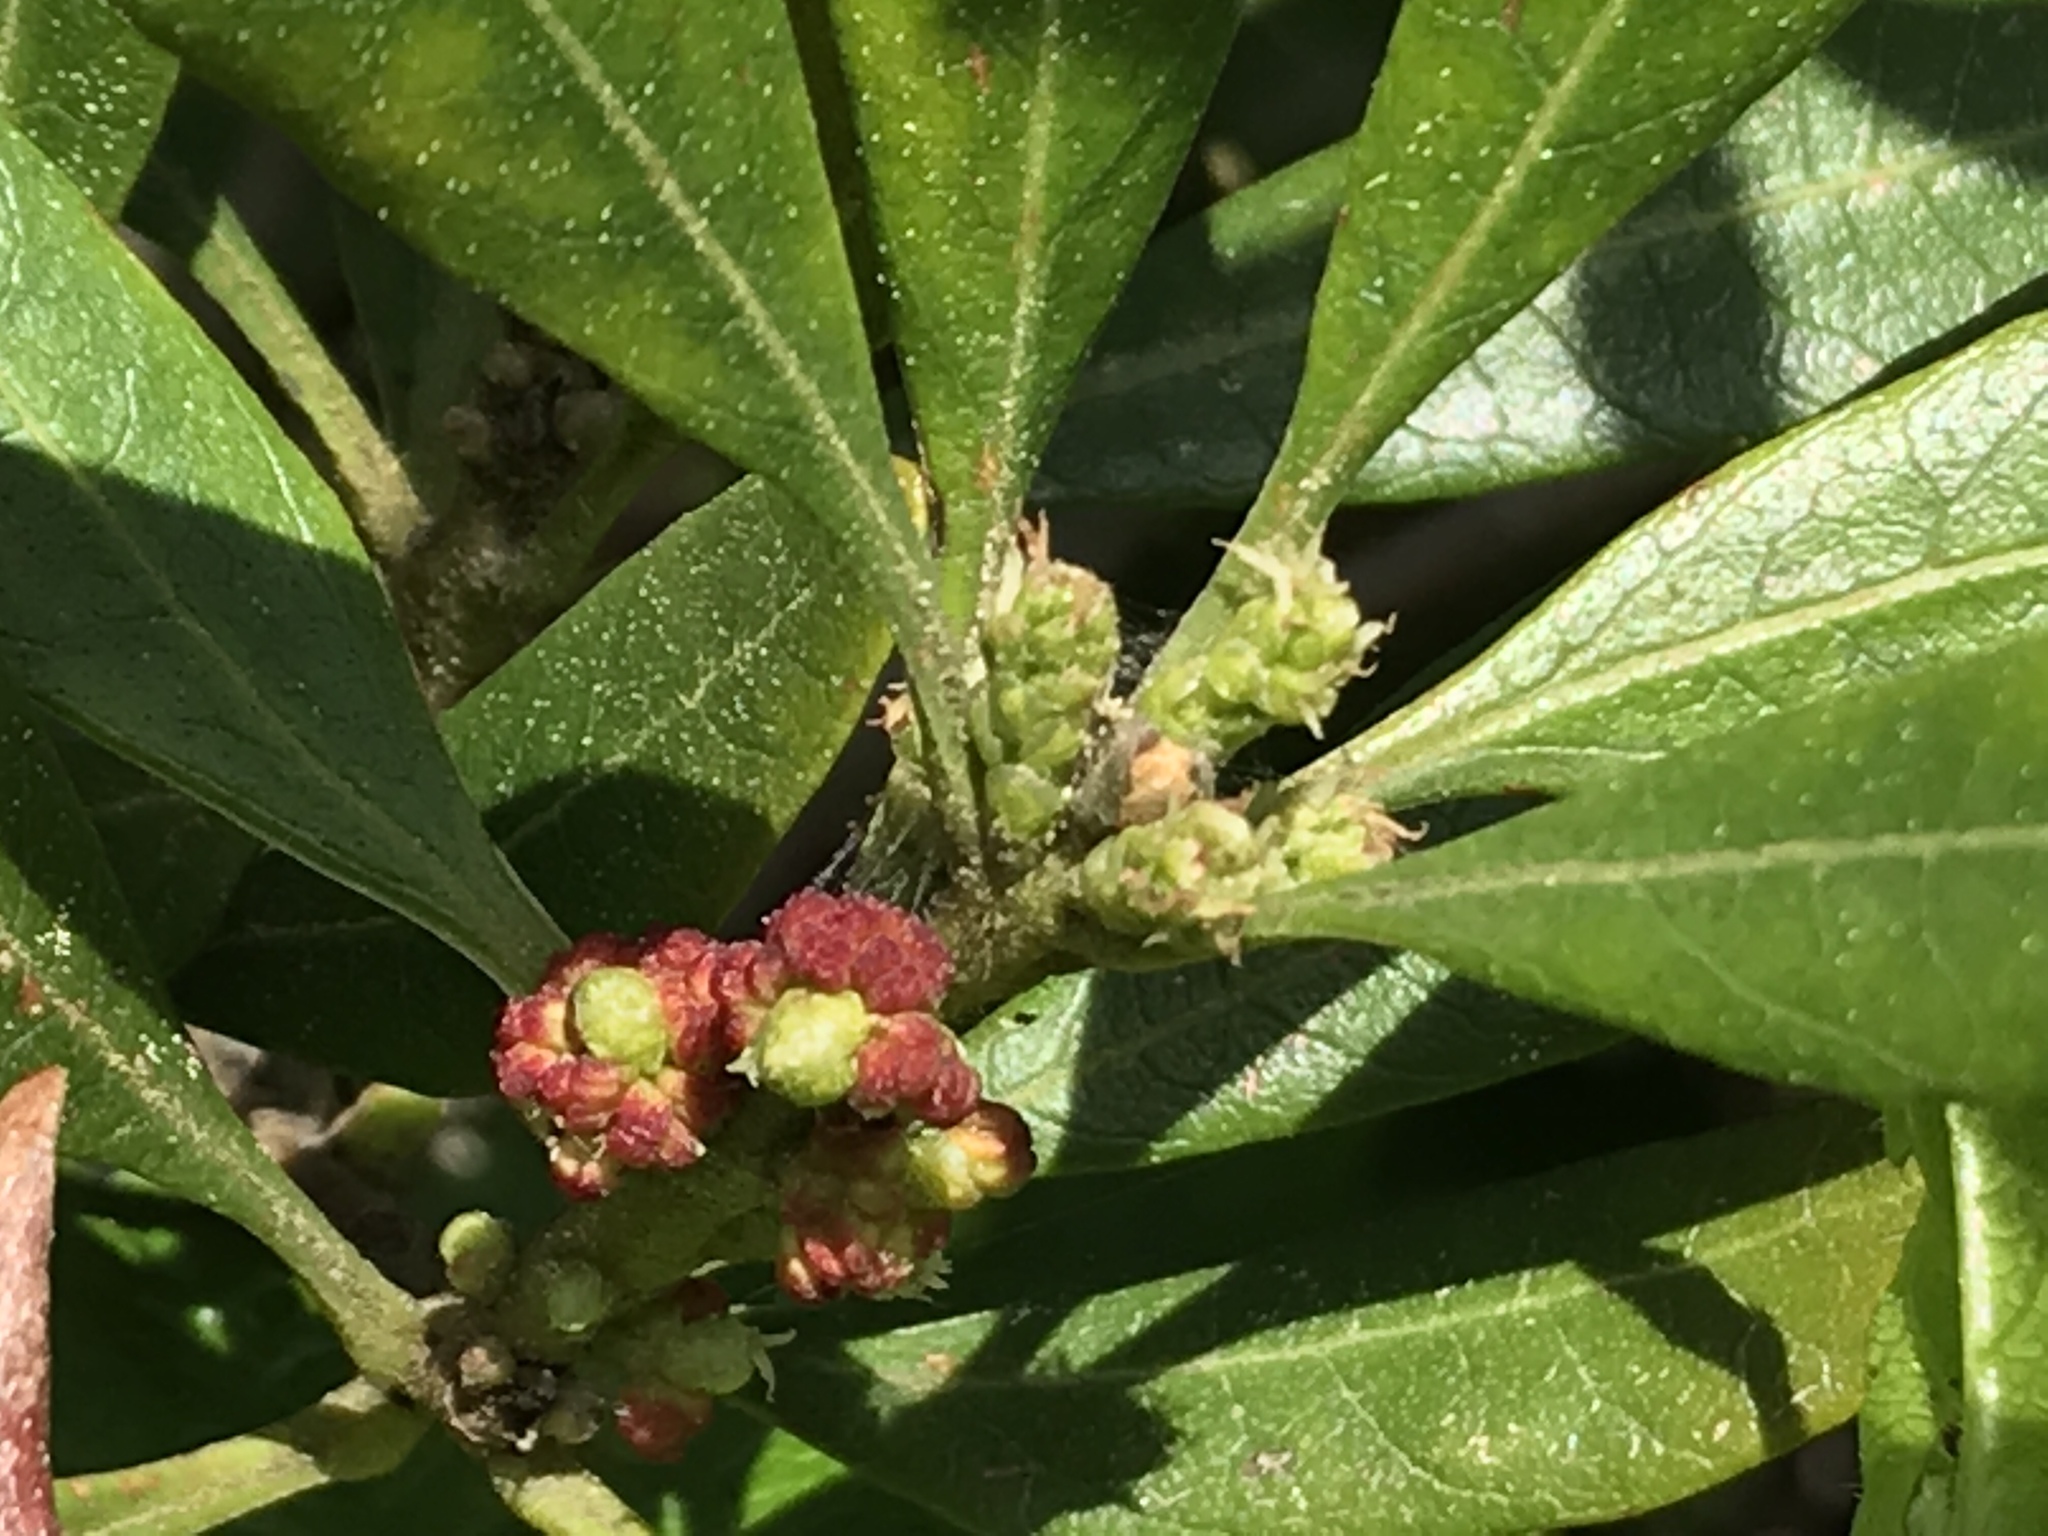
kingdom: Plantae
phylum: Tracheophyta
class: Magnoliopsida
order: Fagales
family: Myricaceae
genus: Morella
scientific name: Morella californica
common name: California wax-myrtle
